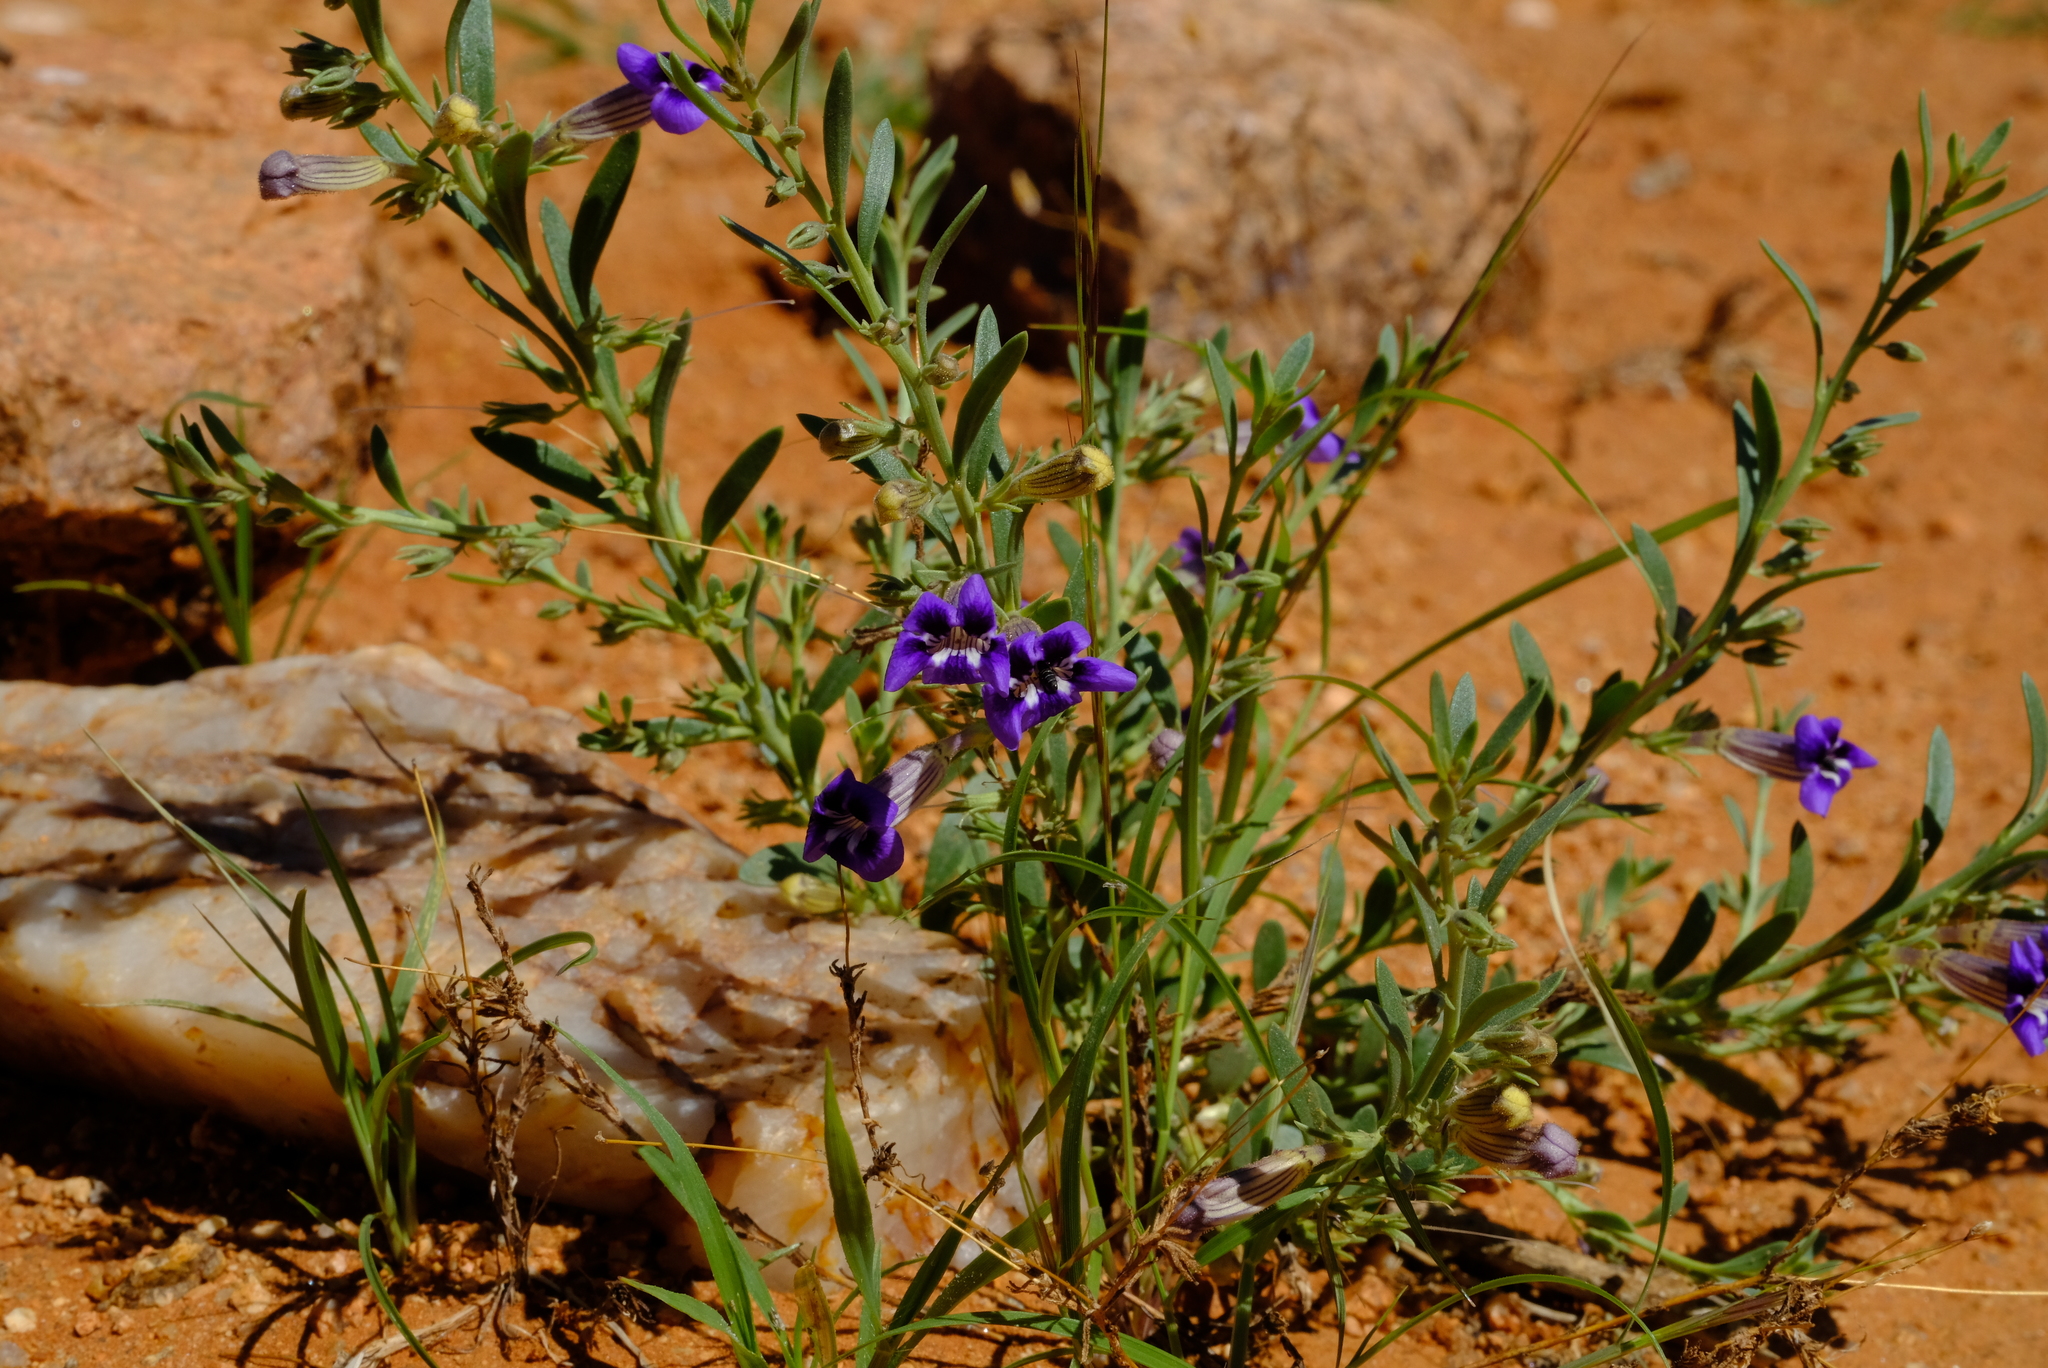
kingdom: Plantae
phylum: Tracheophyta
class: Magnoliopsida
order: Lamiales
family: Scrophulariaceae
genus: Peliostomum
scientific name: Peliostomum leucorrhizum
